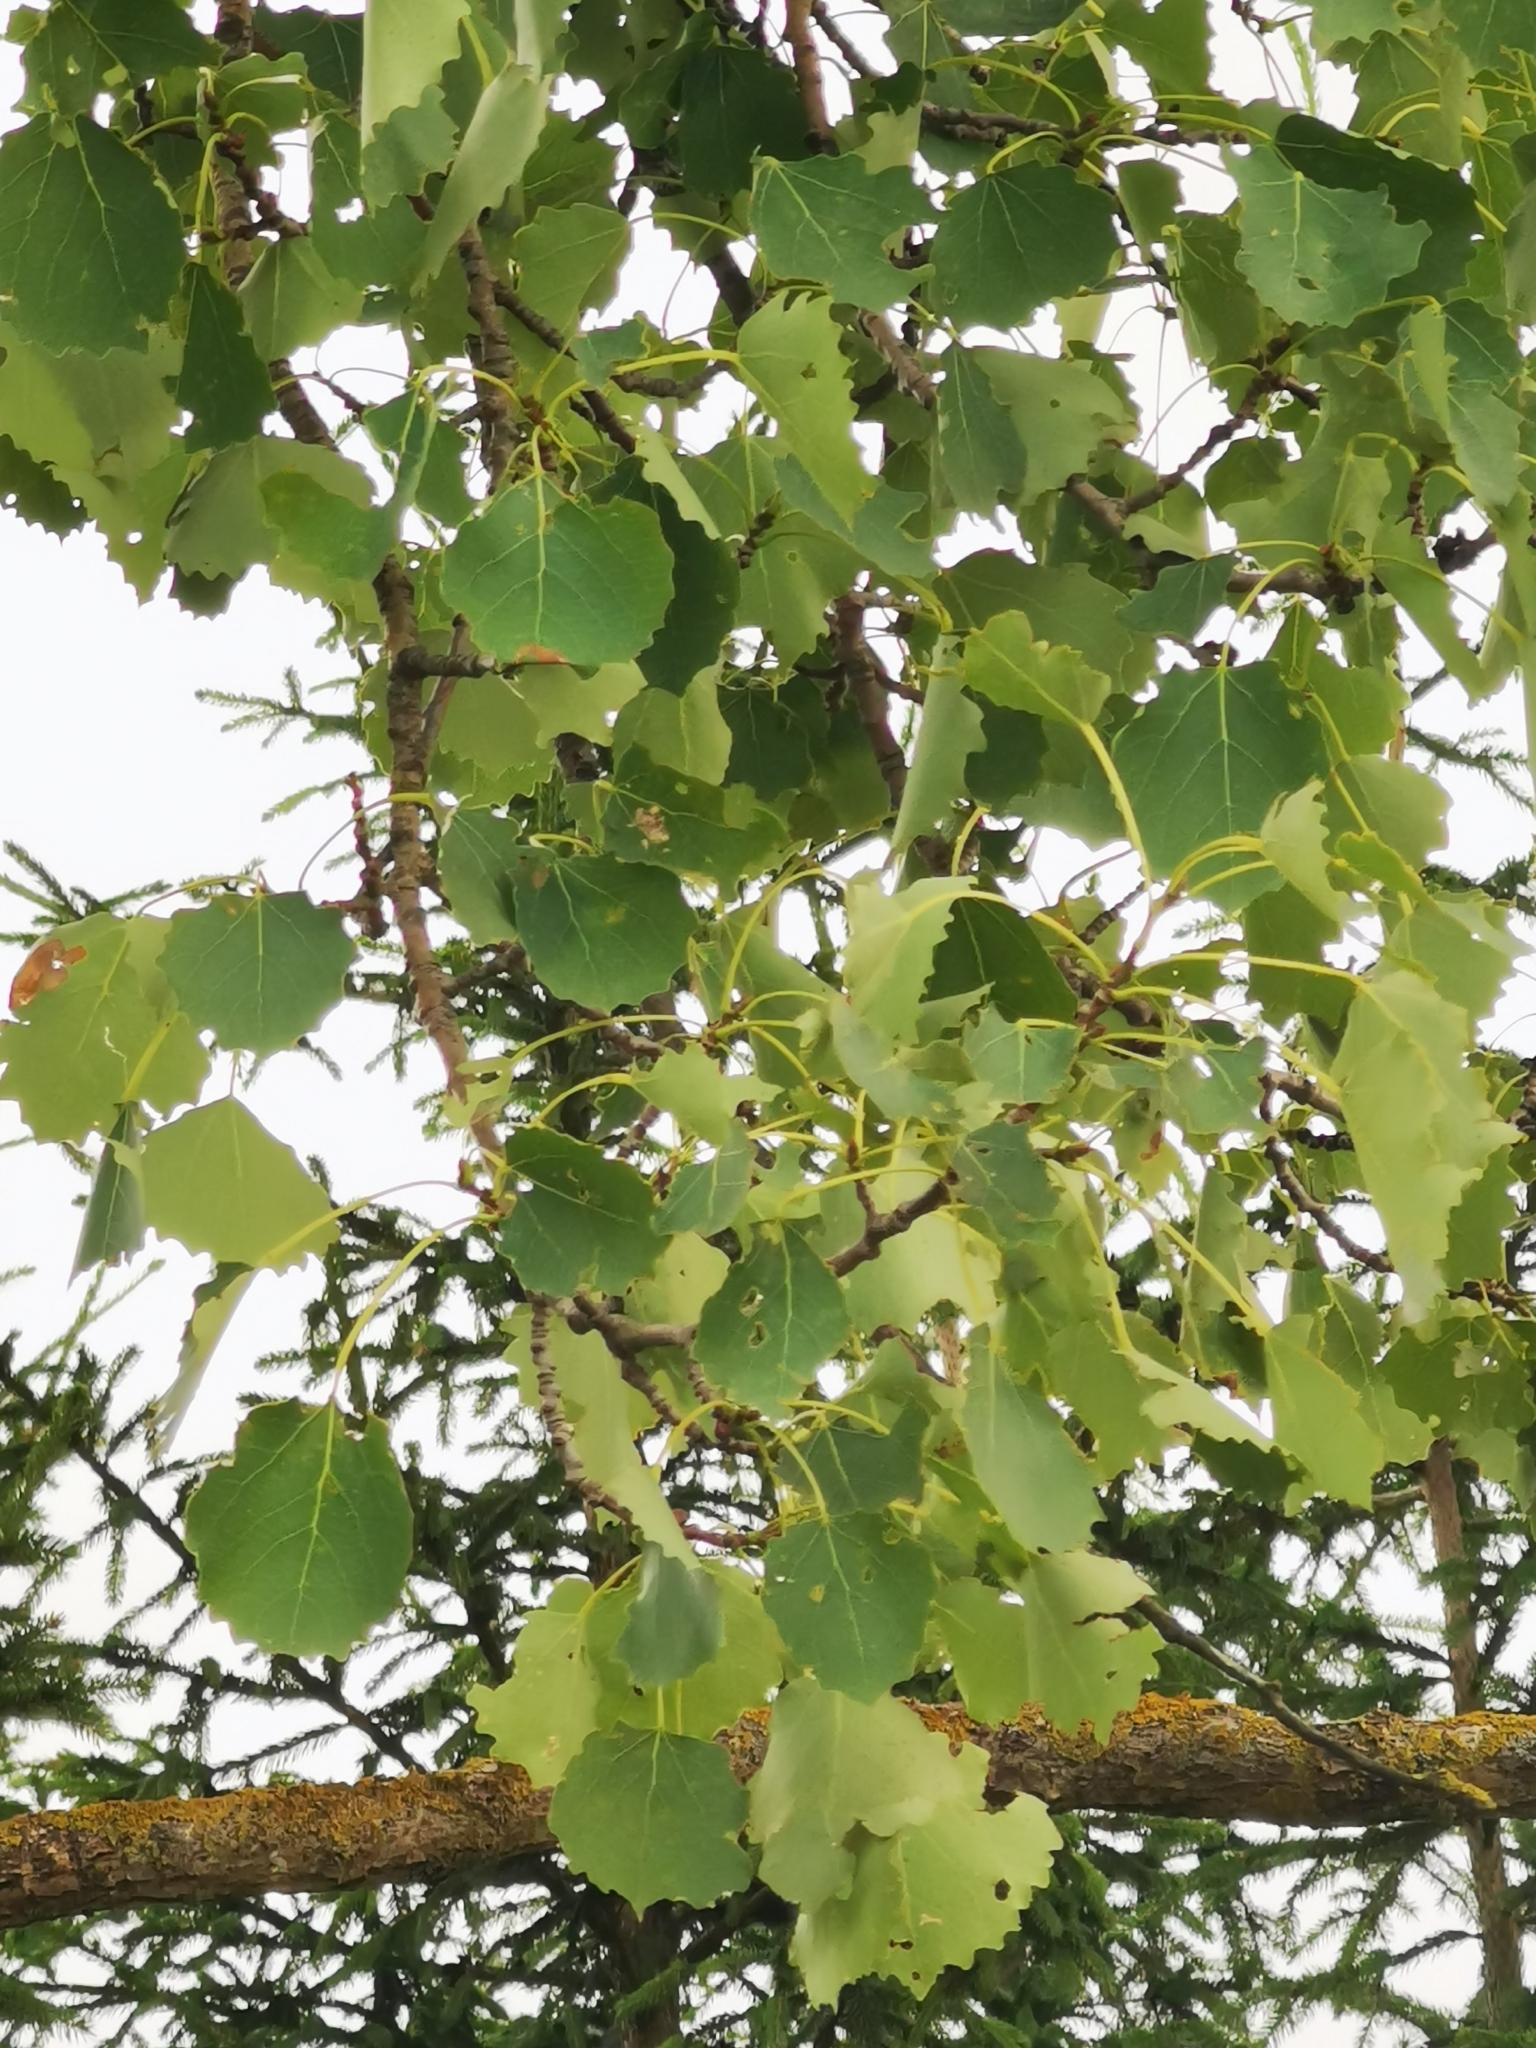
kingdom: Plantae
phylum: Tracheophyta
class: Magnoliopsida
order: Malpighiales
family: Salicaceae
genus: Populus
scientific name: Populus tremula
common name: European aspen
